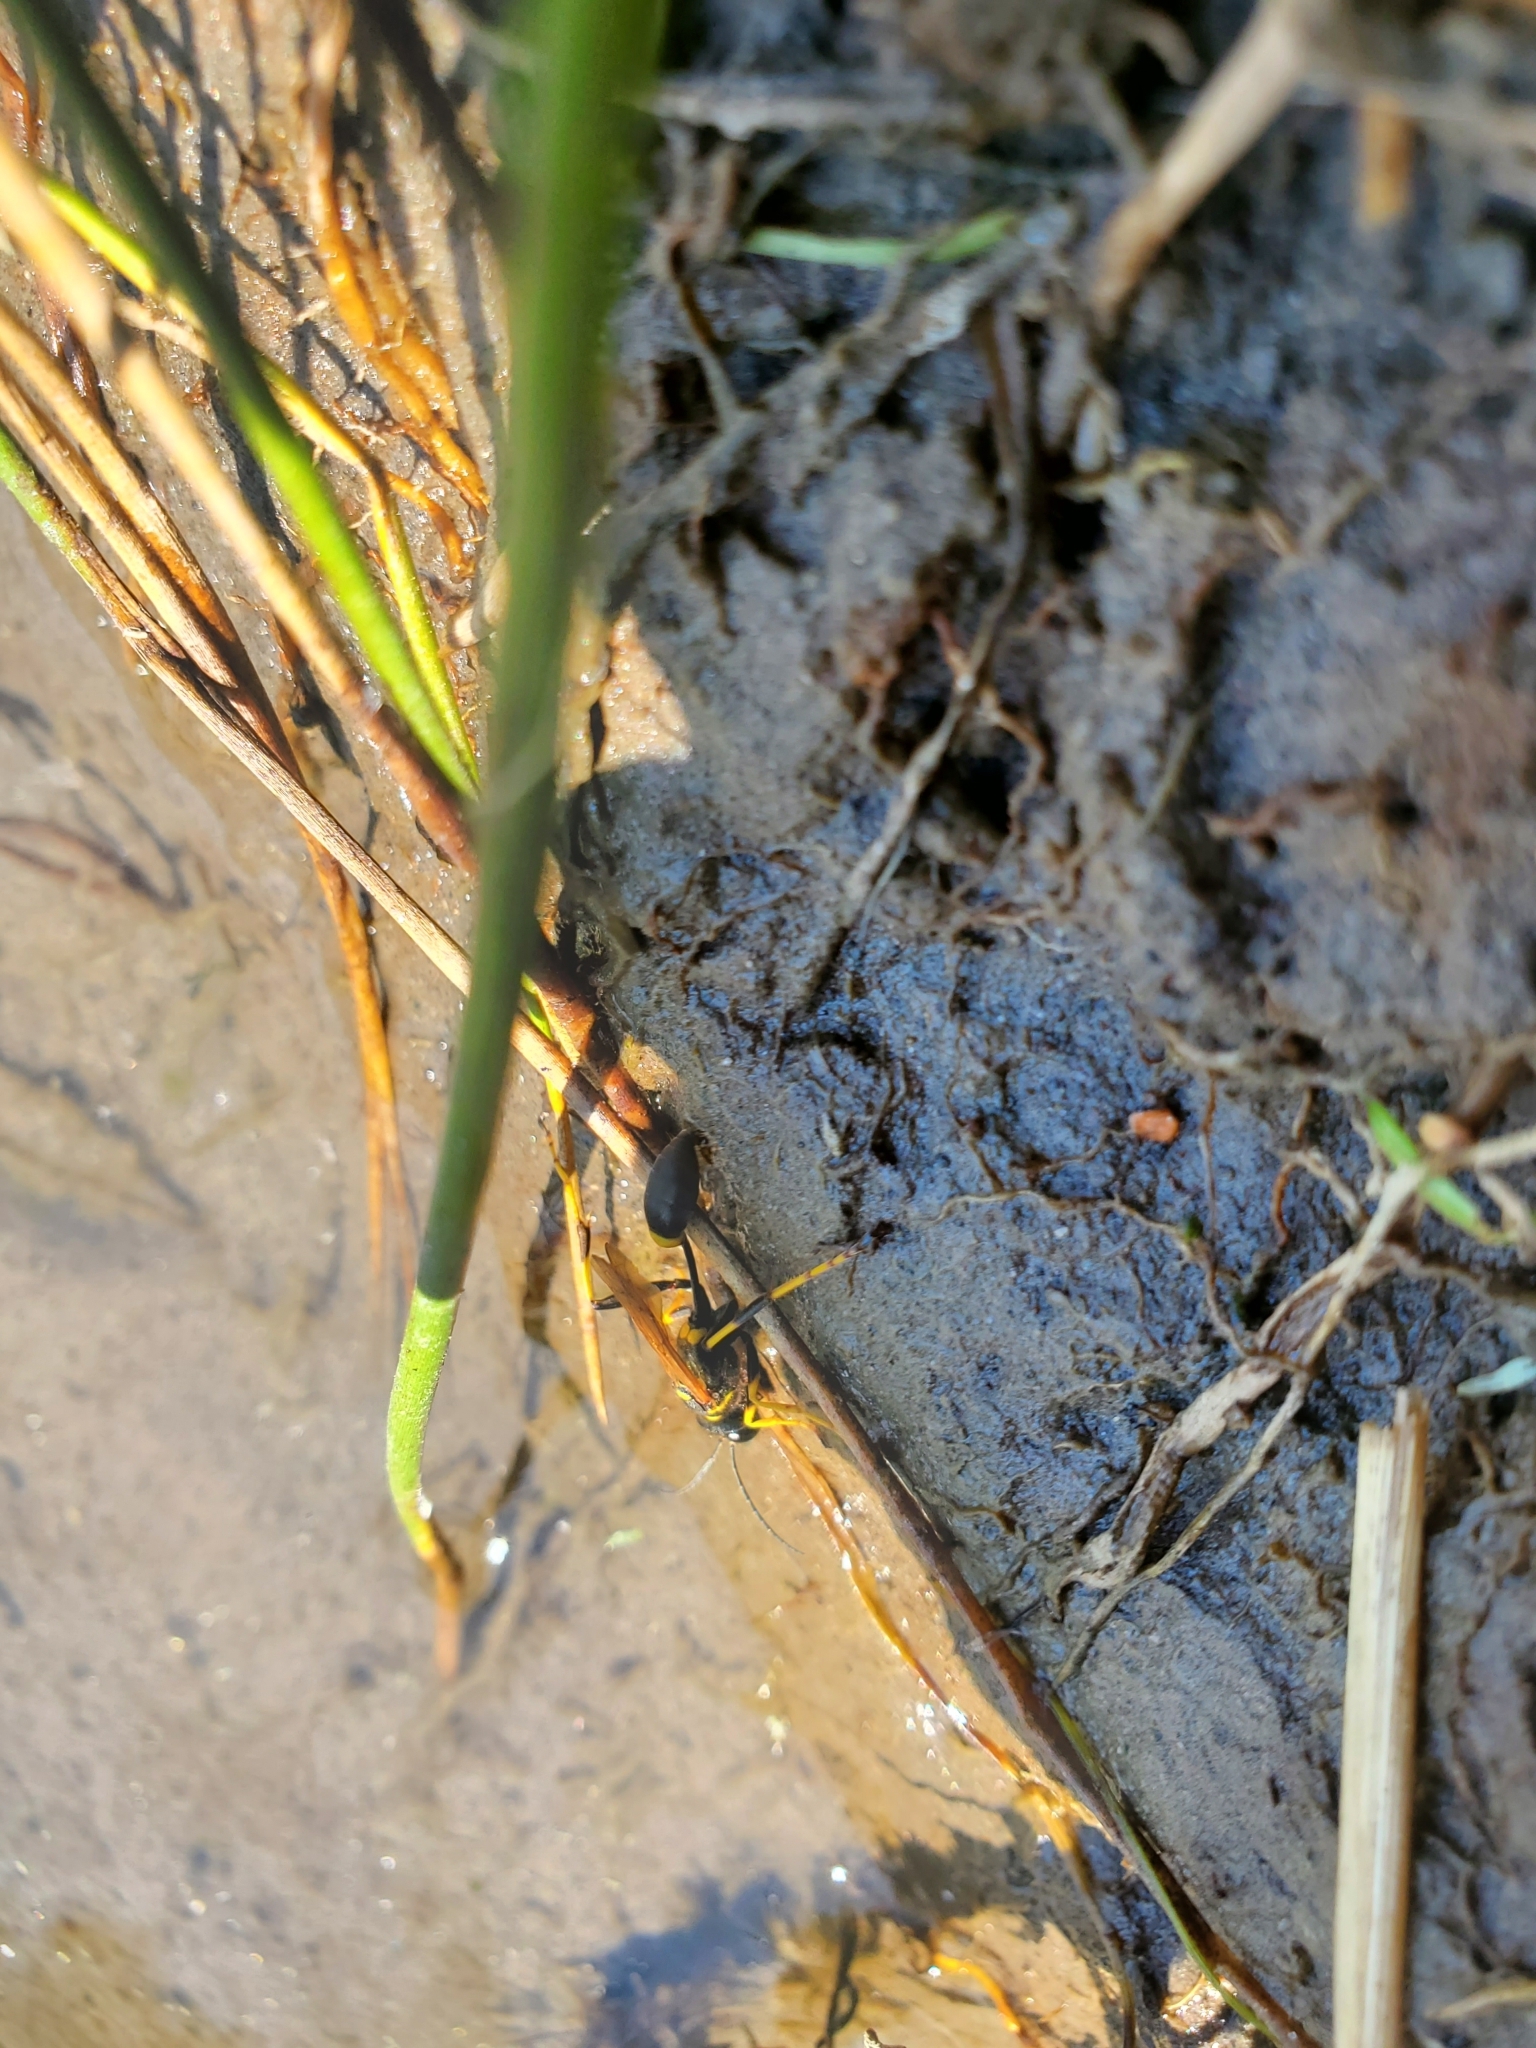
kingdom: Animalia
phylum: Arthropoda
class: Insecta
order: Hymenoptera
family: Sphecidae
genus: Sceliphron
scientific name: Sceliphron caementarium
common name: Mud dauber
